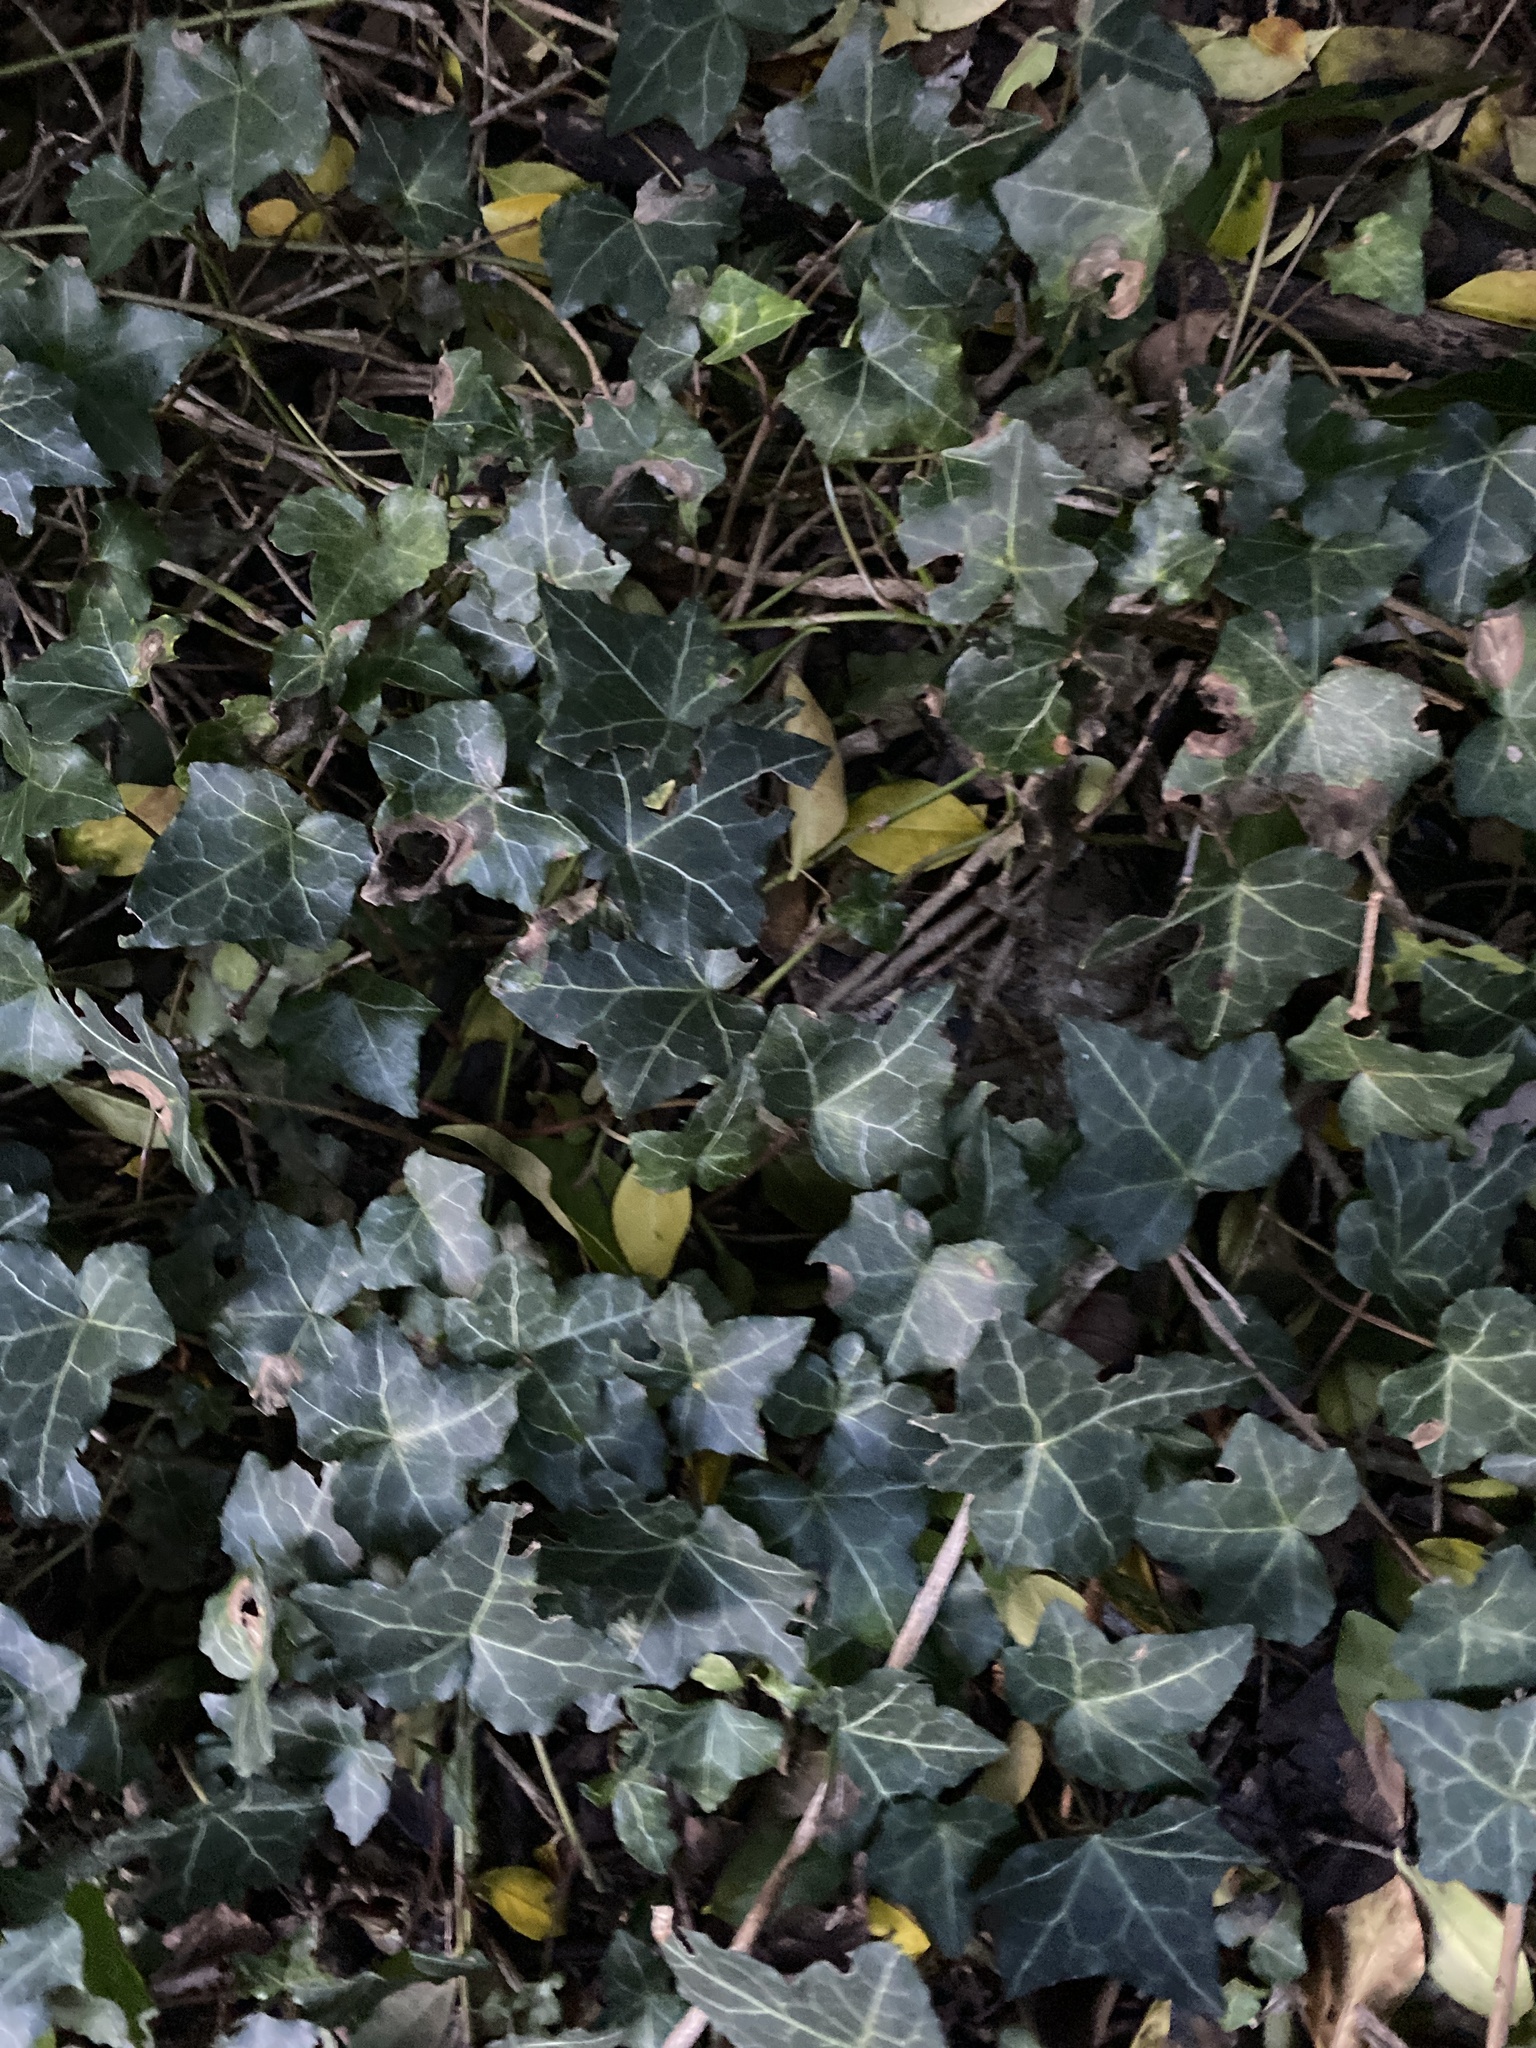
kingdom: Plantae
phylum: Tracheophyta
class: Magnoliopsida
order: Apiales
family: Araliaceae
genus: Hedera
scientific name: Hedera helix
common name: Ivy
